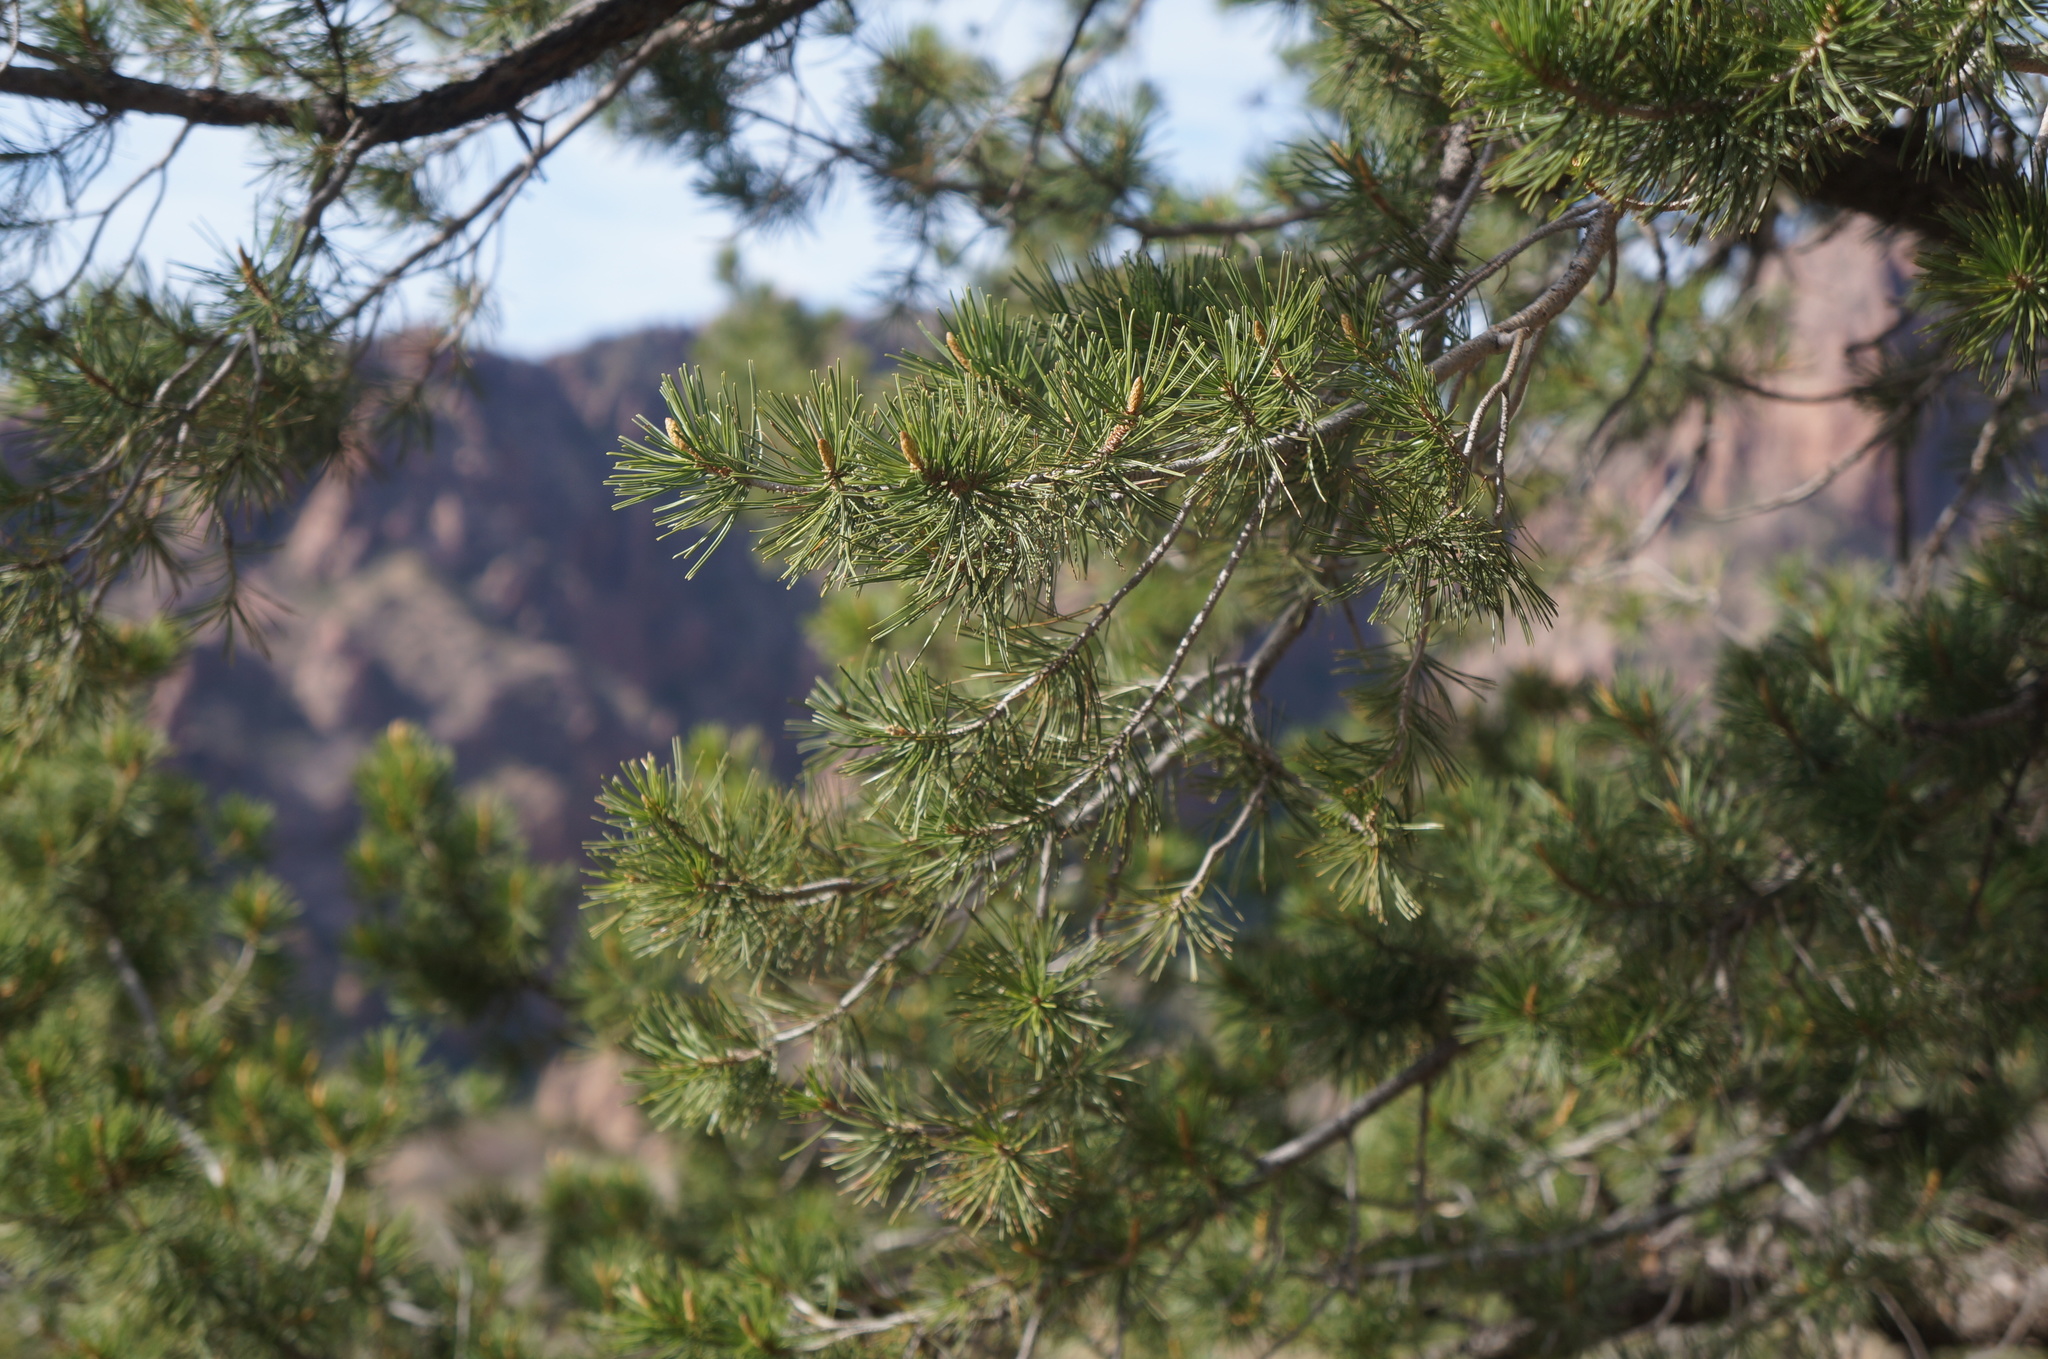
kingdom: Plantae
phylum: Tracheophyta
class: Pinopsida
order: Pinales
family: Pinaceae
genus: Pinus
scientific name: Pinus cembroides
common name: Mexican nut pine
